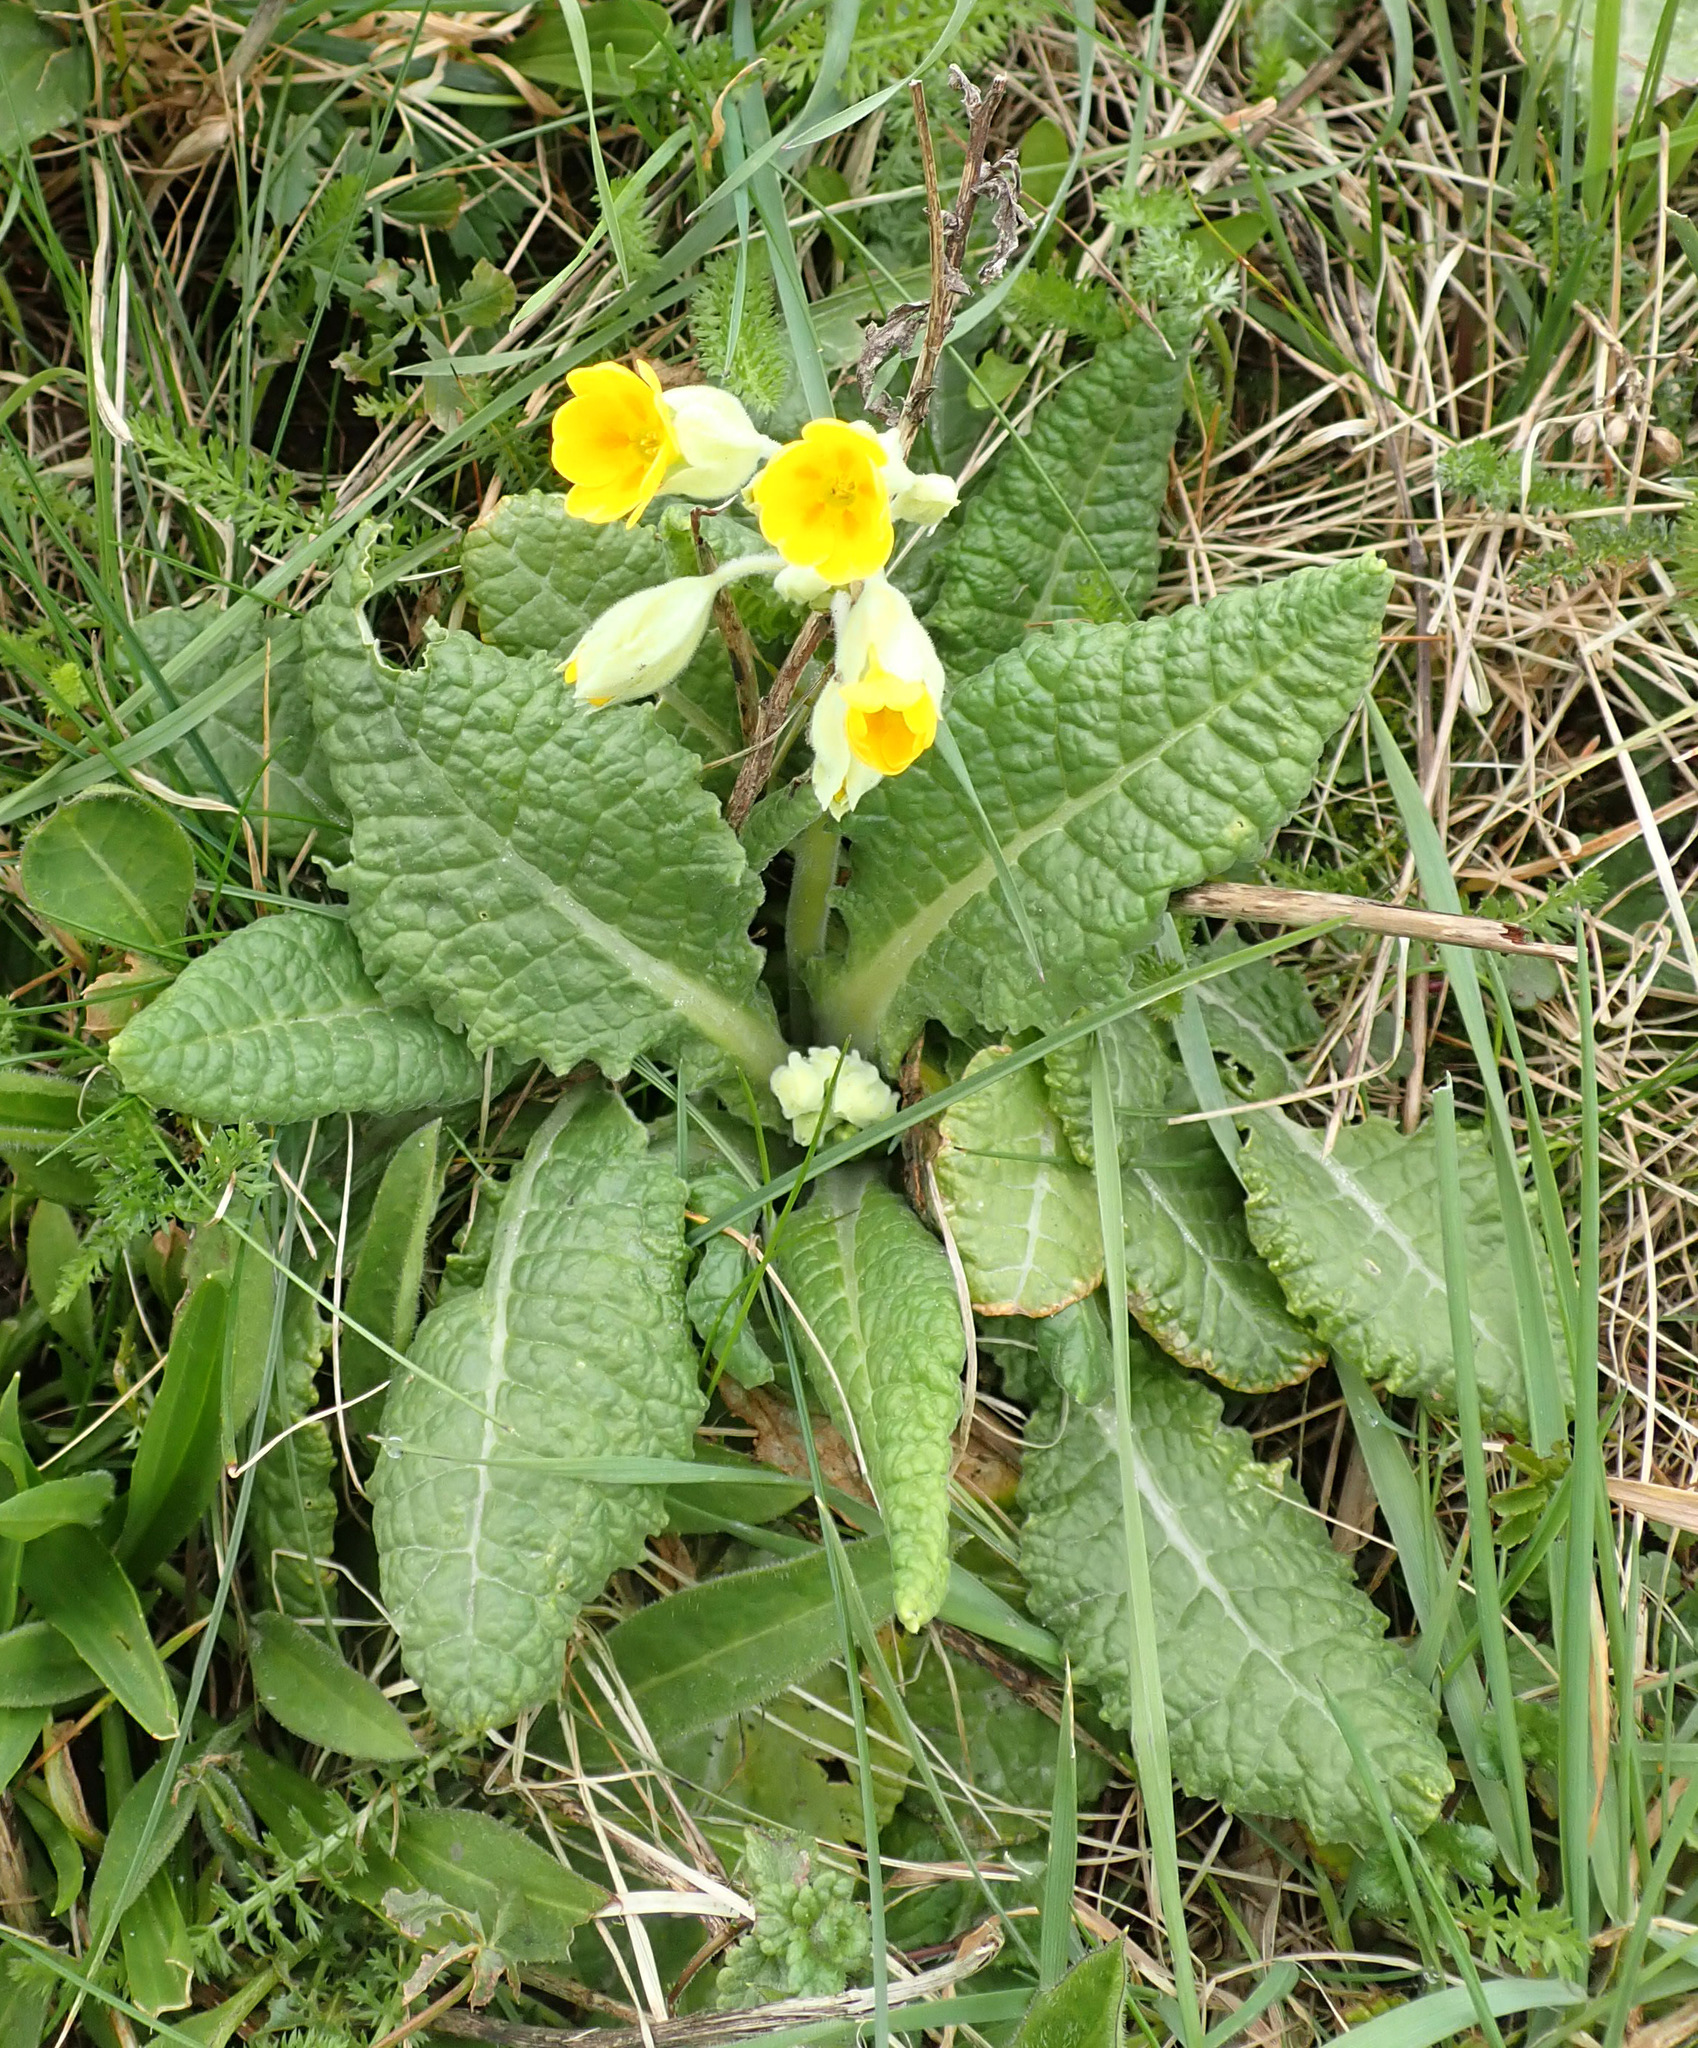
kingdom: Plantae
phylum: Tracheophyta
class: Magnoliopsida
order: Ericales
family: Primulaceae
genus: Primula
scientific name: Primula veris
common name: Cowslip
